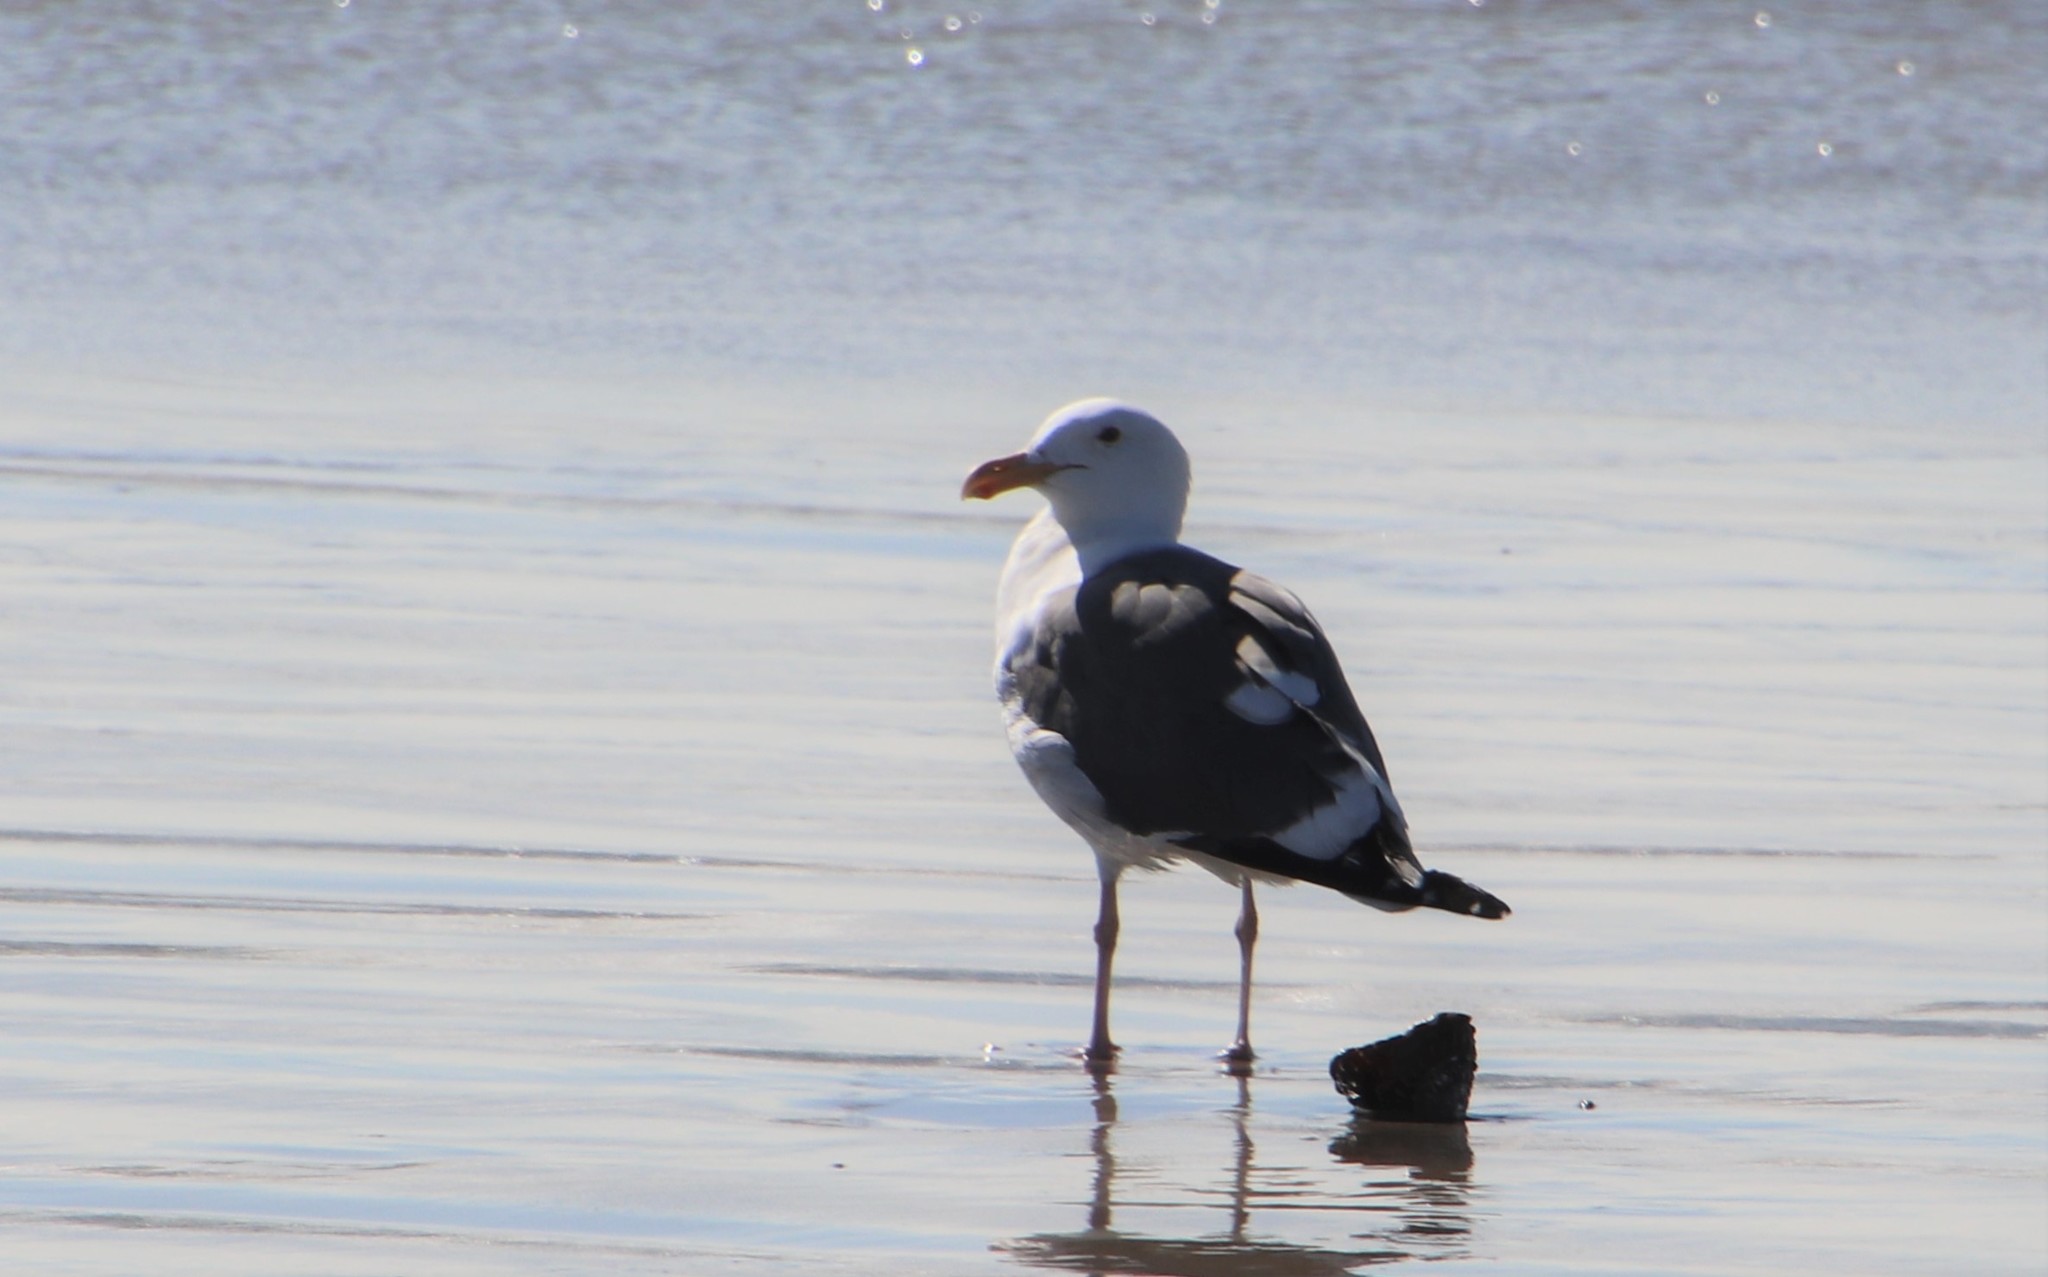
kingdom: Animalia
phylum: Chordata
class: Aves
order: Charadriiformes
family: Laridae
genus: Larus
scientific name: Larus occidentalis
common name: Western gull
